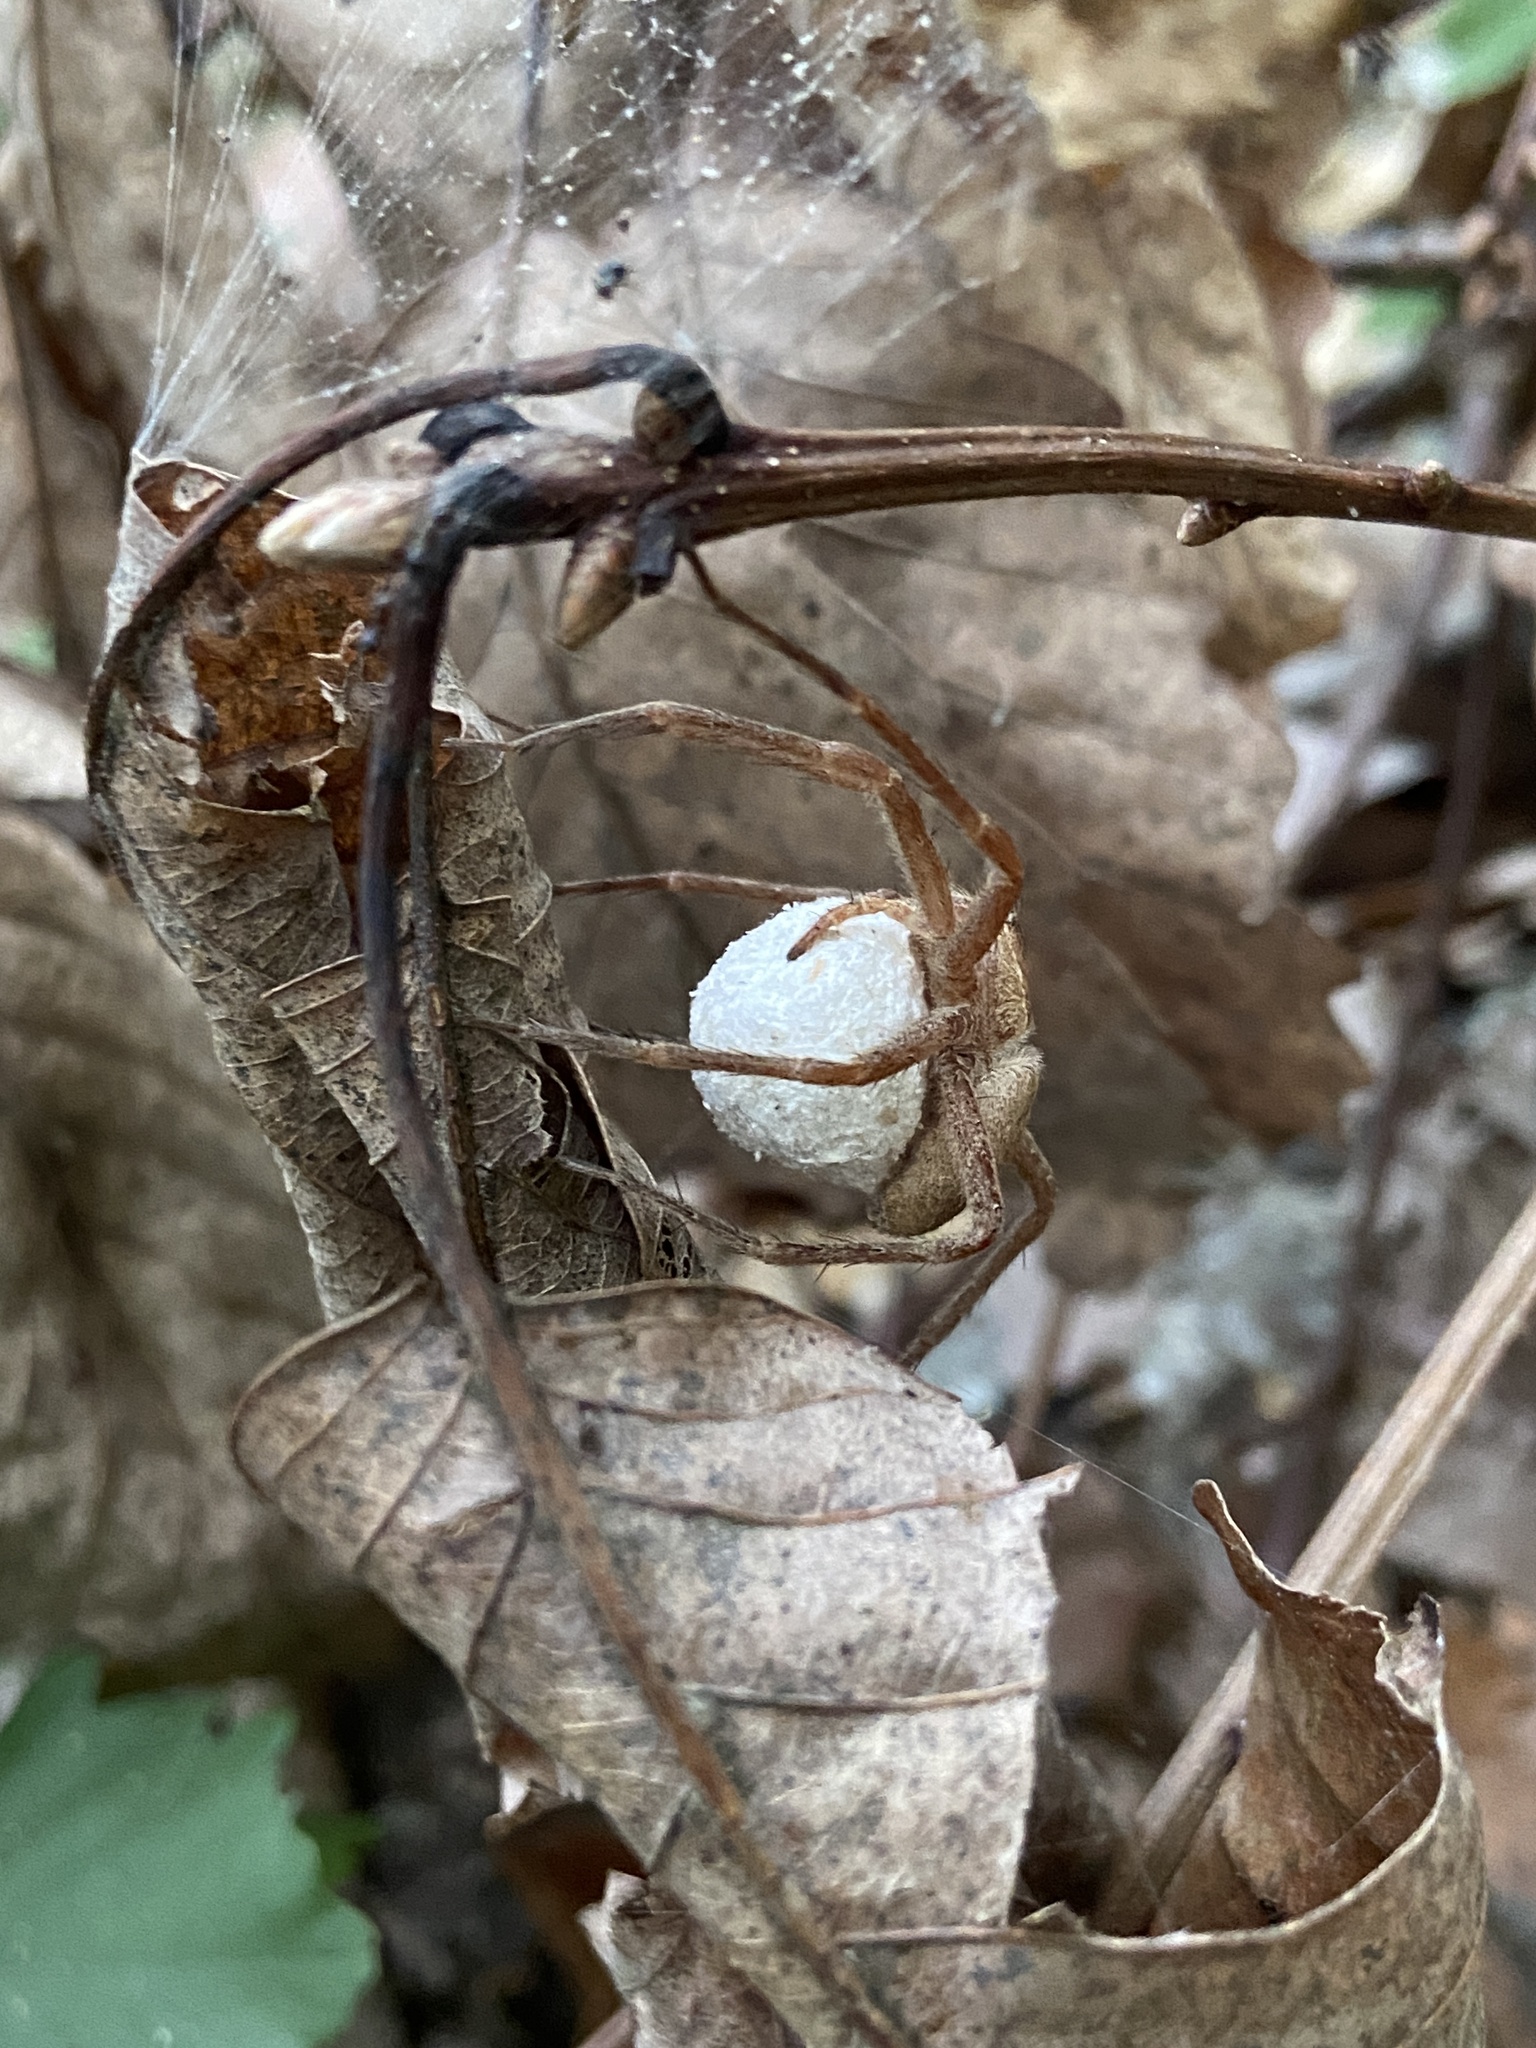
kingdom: Animalia
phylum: Arthropoda
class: Arachnida
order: Araneae
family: Pisauridae
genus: Pisaurina
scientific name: Pisaurina mira
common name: American nursery web spider
